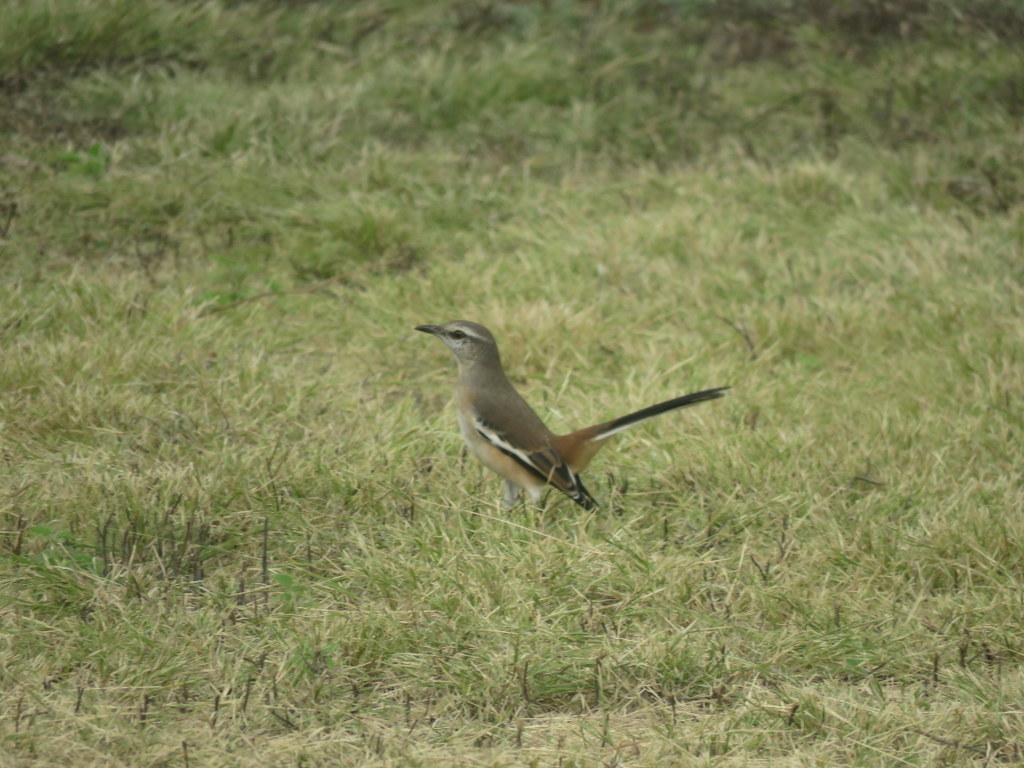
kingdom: Animalia
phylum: Chordata
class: Aves
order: Passeriformes
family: Mimidae
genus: Mimus
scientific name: Mimus triurus
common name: White-banded mockingbird
